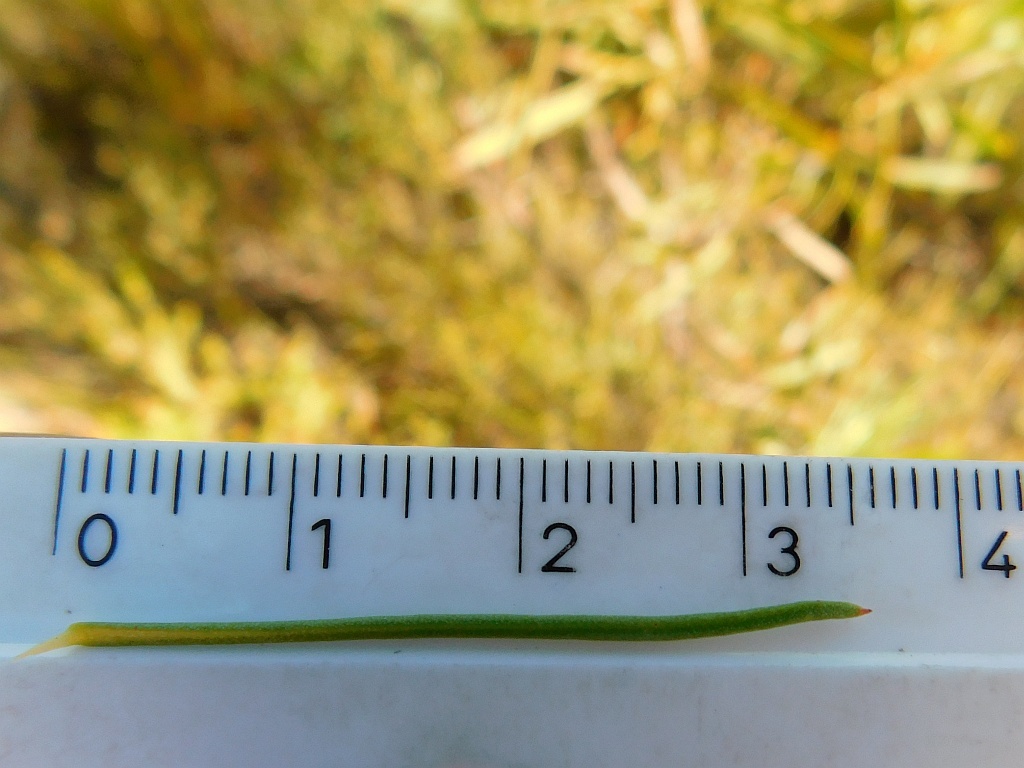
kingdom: Plantae
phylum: Tracheophyta
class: Magnoliopsida
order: Proteales
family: Proteaceae
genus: Protea
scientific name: Protea subulifolia
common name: Awl-leaf sugarbush
